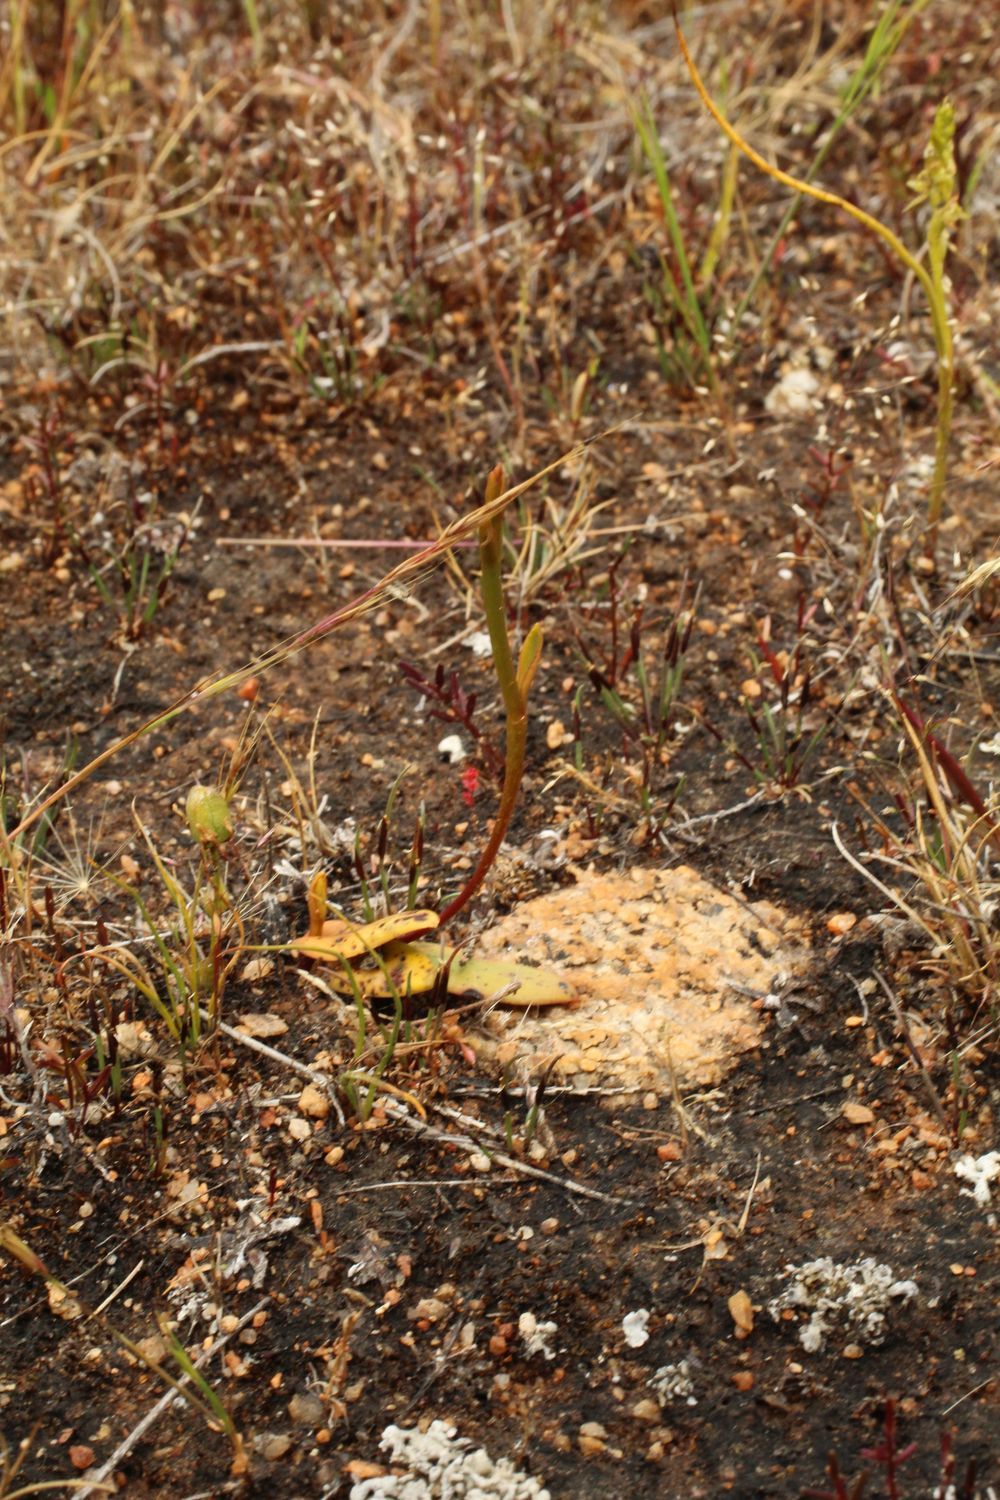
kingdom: Plantae
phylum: Tracheophyta
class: Liliopsida
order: Asparagales
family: Orchidaceae
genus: Spiculaea
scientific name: Spiculaea ciliata
